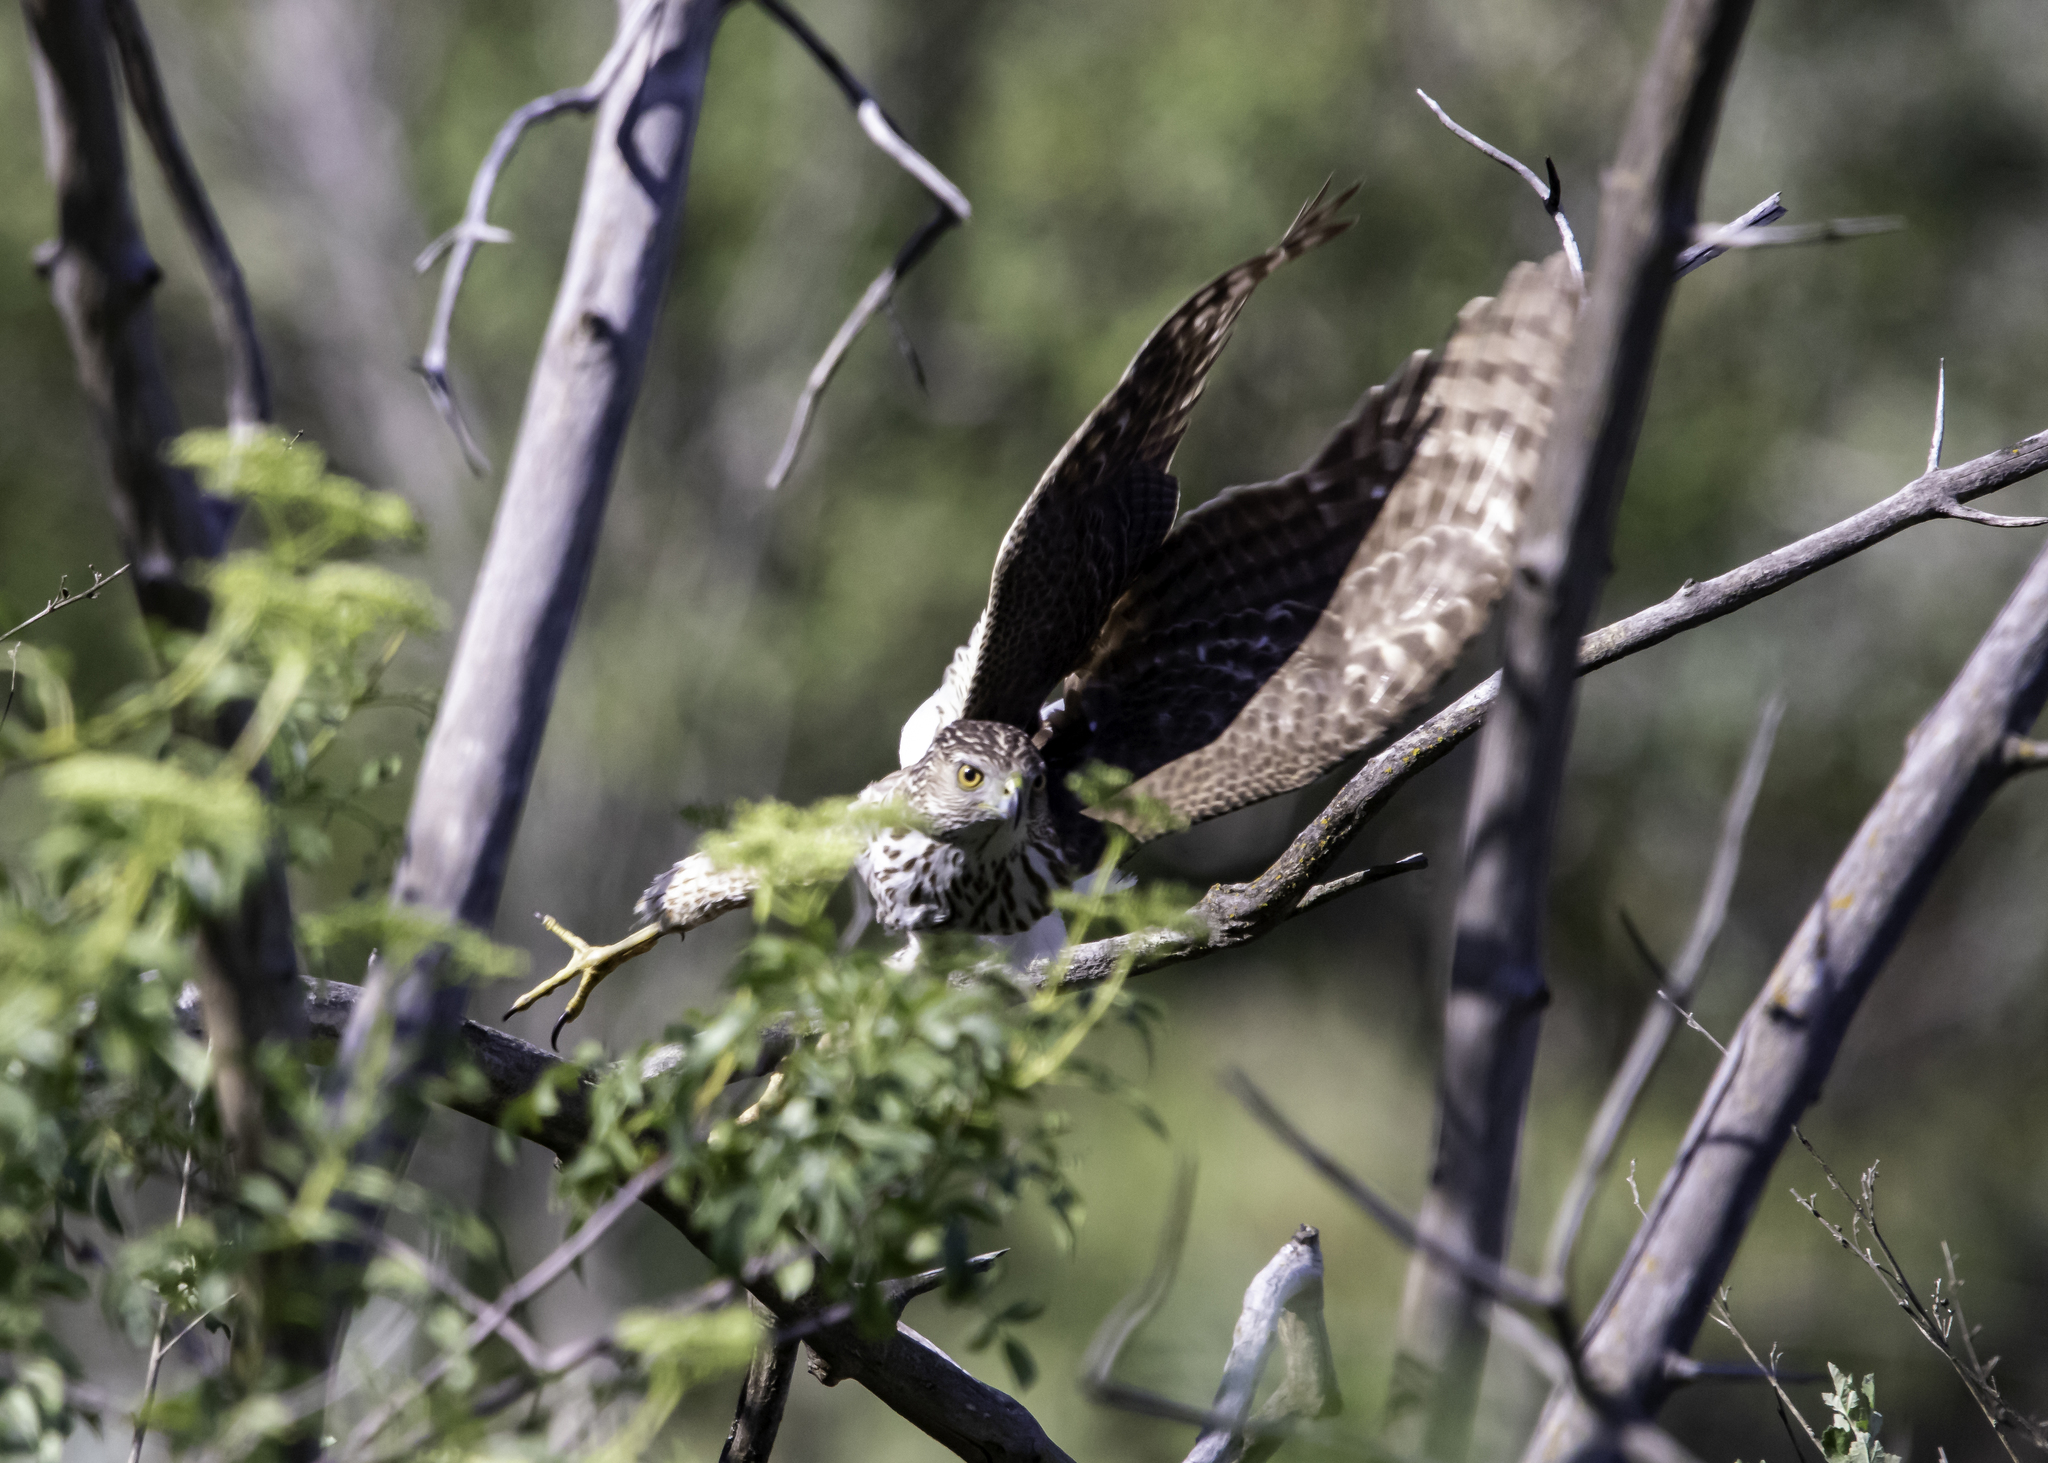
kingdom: Animalia
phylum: Chordata
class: Aves
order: Accipitriformes
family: Accipitridae
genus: Accipiter
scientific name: Accipiter cooperii
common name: Cooper's hawk
